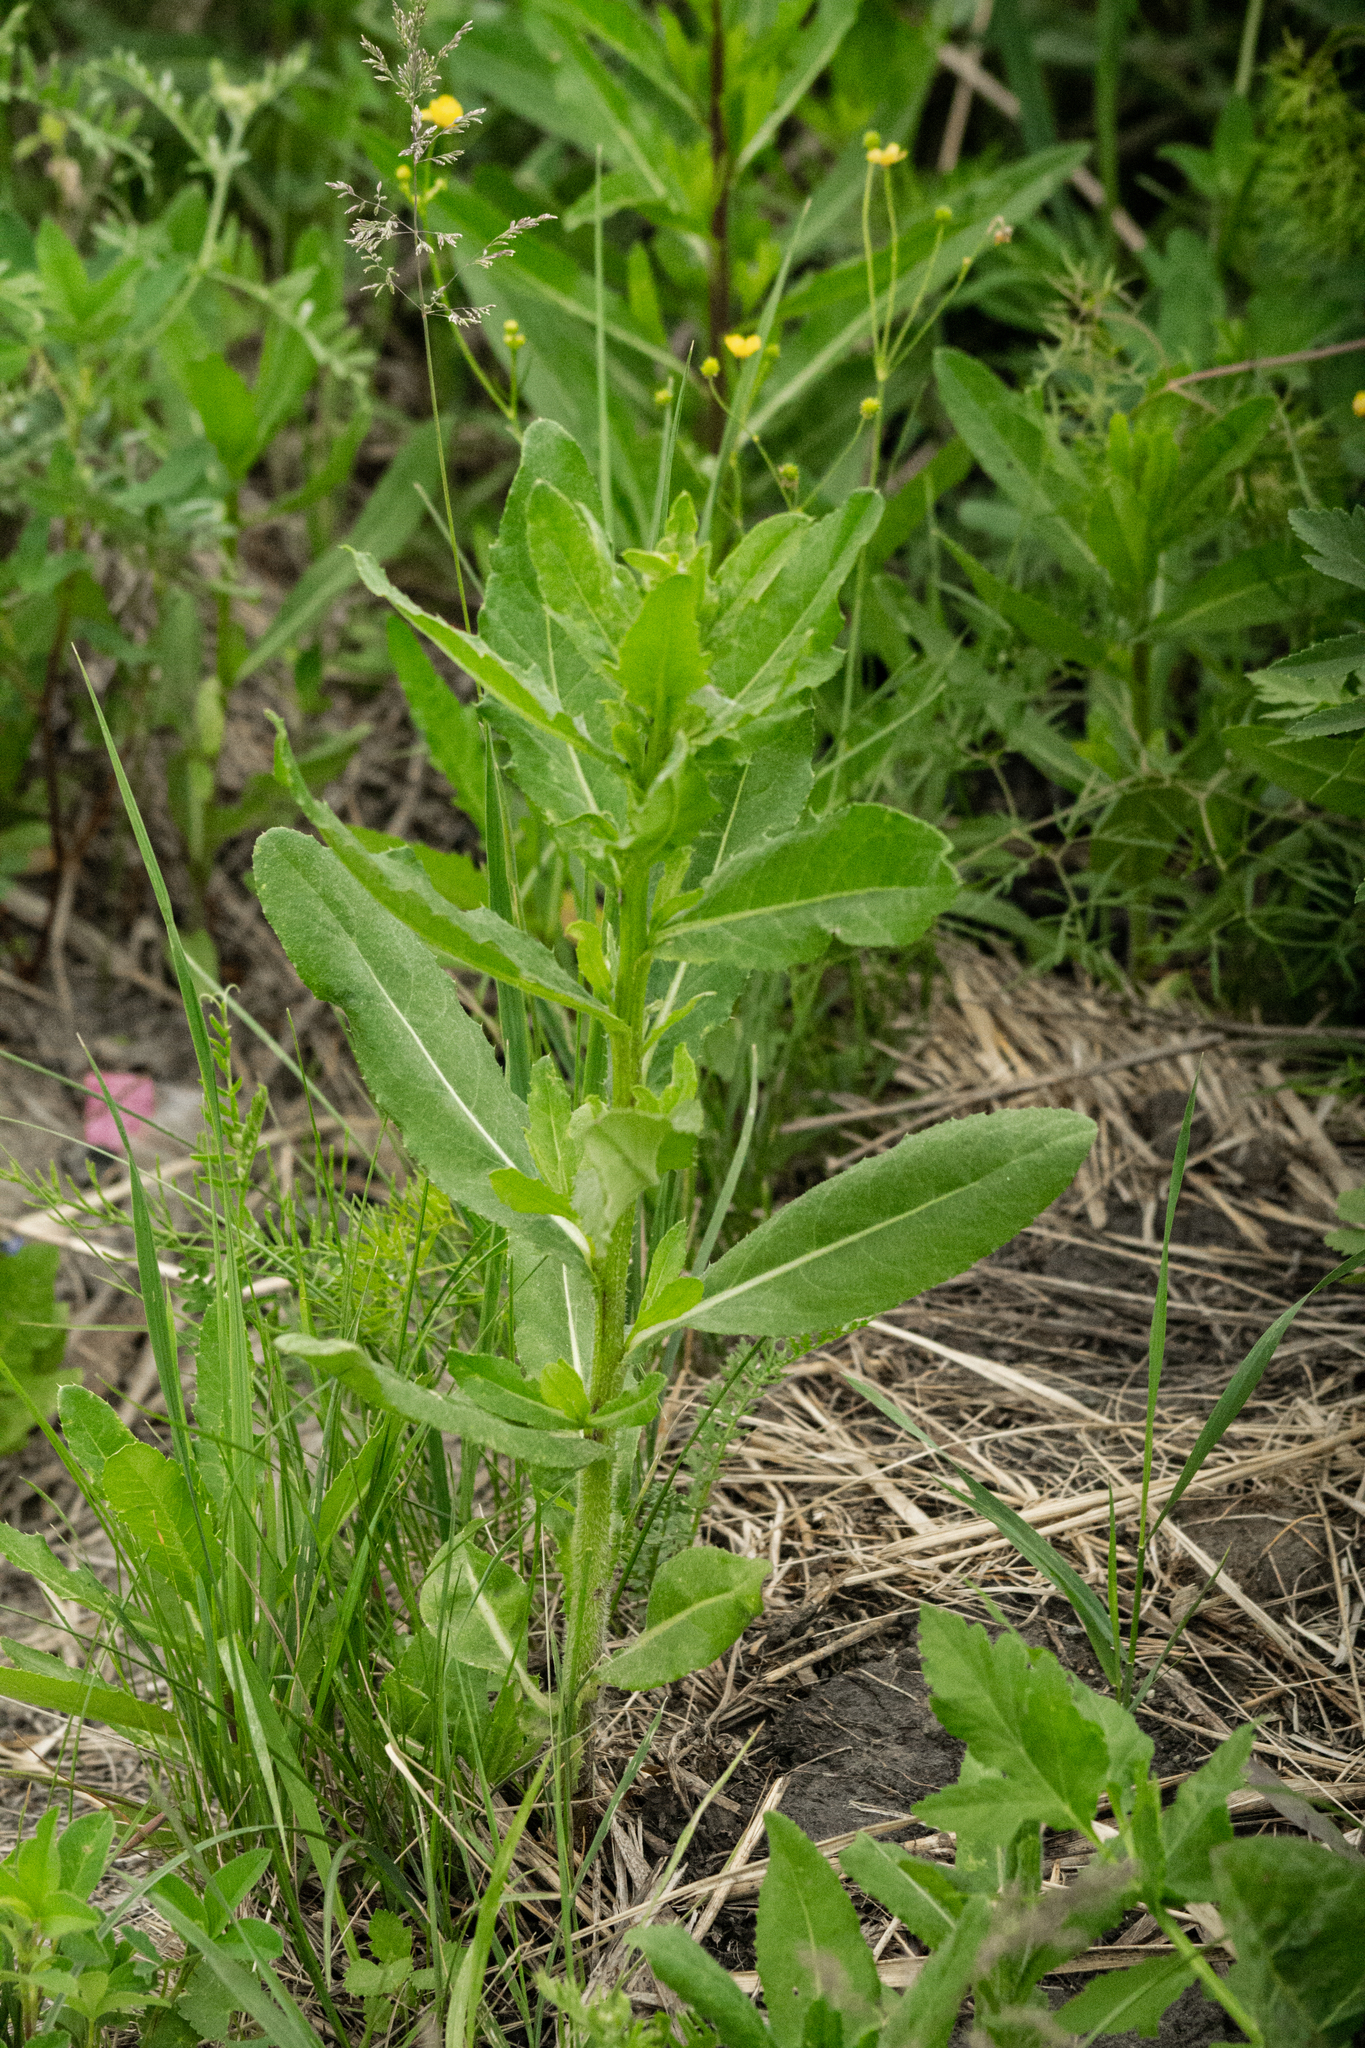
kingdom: Plantae
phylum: Tracheophyta
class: Magnoliopsida
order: Asterales
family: Asteraceae
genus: Cirsium
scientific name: Cirsium arvense
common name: Creeping thistle
